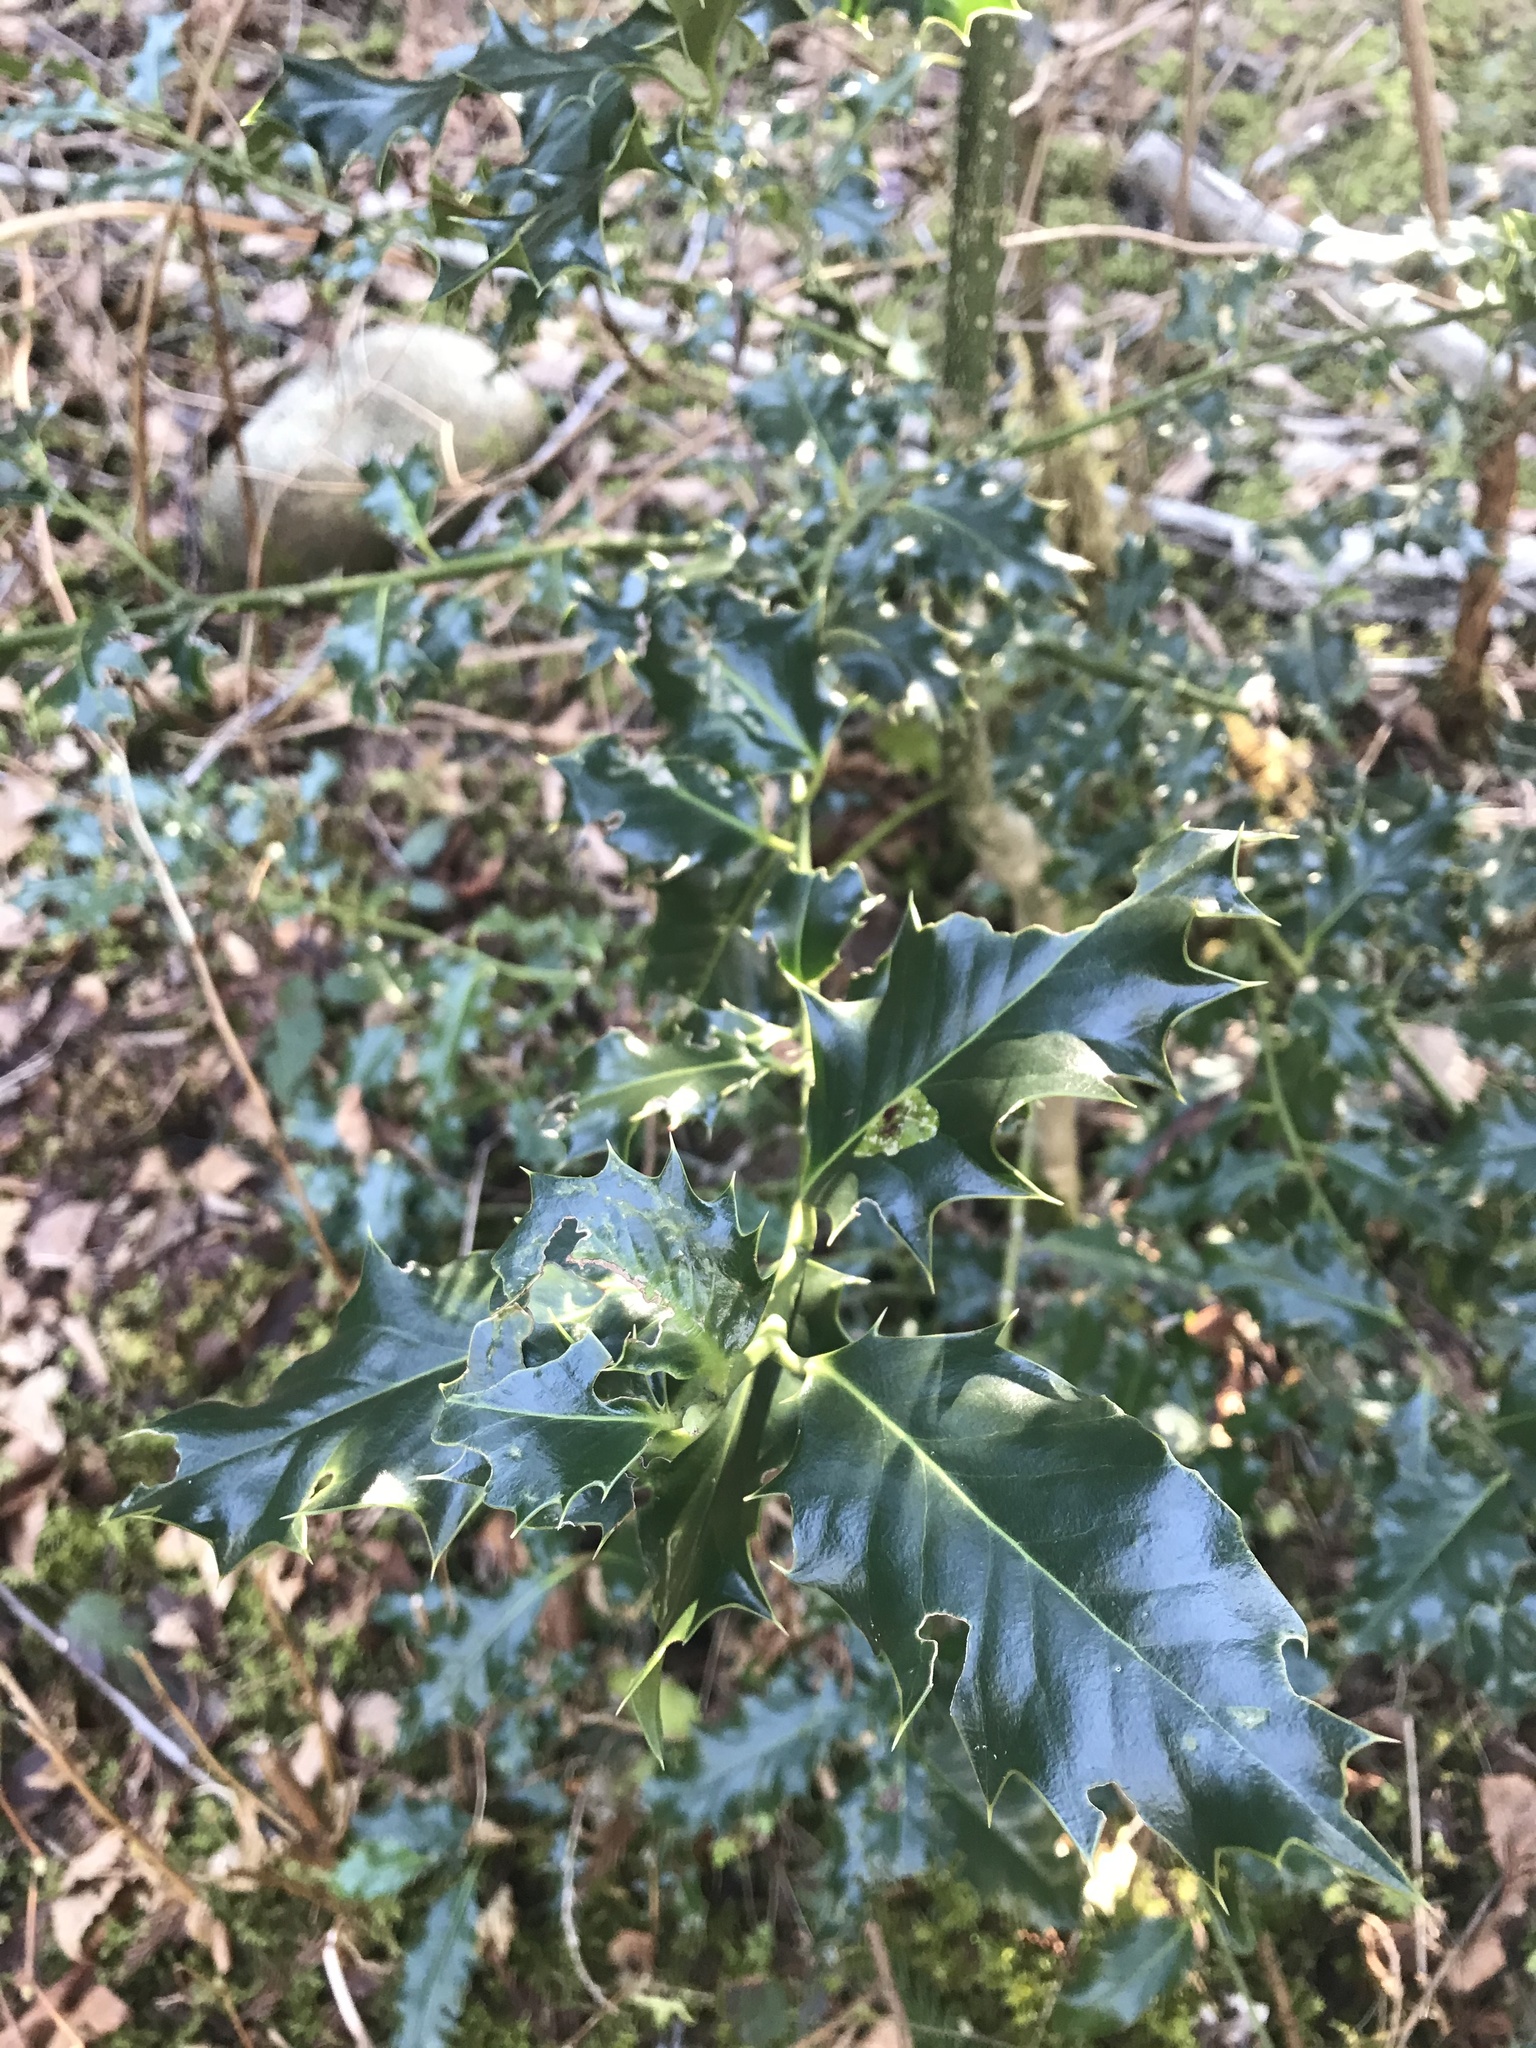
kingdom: Plantae
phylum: Tracheophyta
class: Magnoliopsida
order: Aquifoliales
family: Aquifoliaceae
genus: Ilex
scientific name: Ilex aquifolium
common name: English holly
